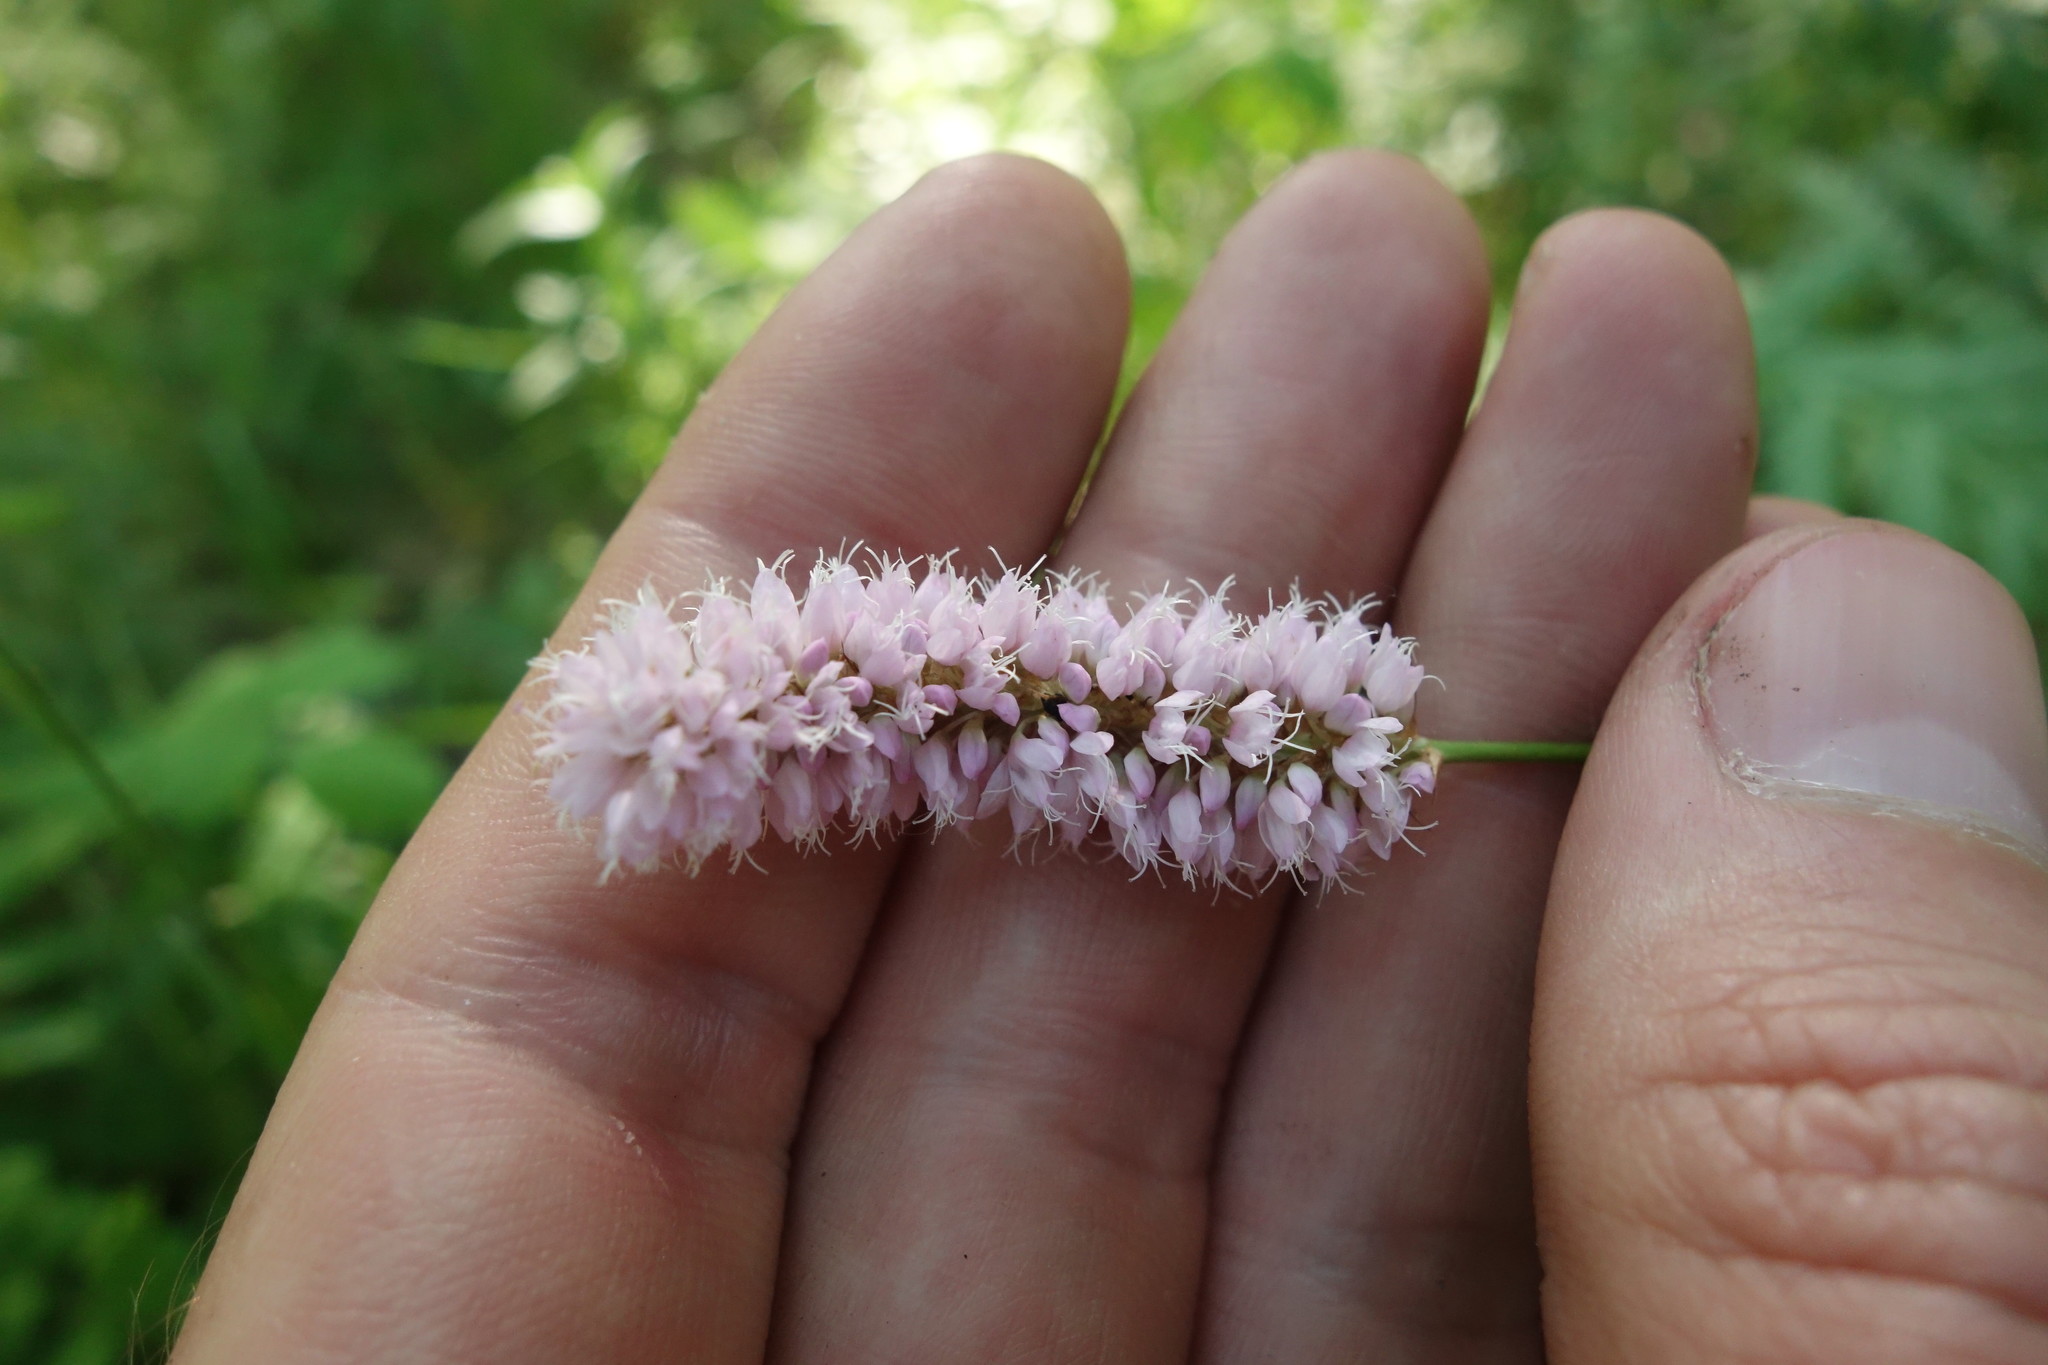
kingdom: Plantae
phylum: Tracheophyta
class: Magnoliopsida
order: Caryophyllales
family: Polygonaceae
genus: Bistorta
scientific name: Bistorta officinalis
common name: Common bistort
